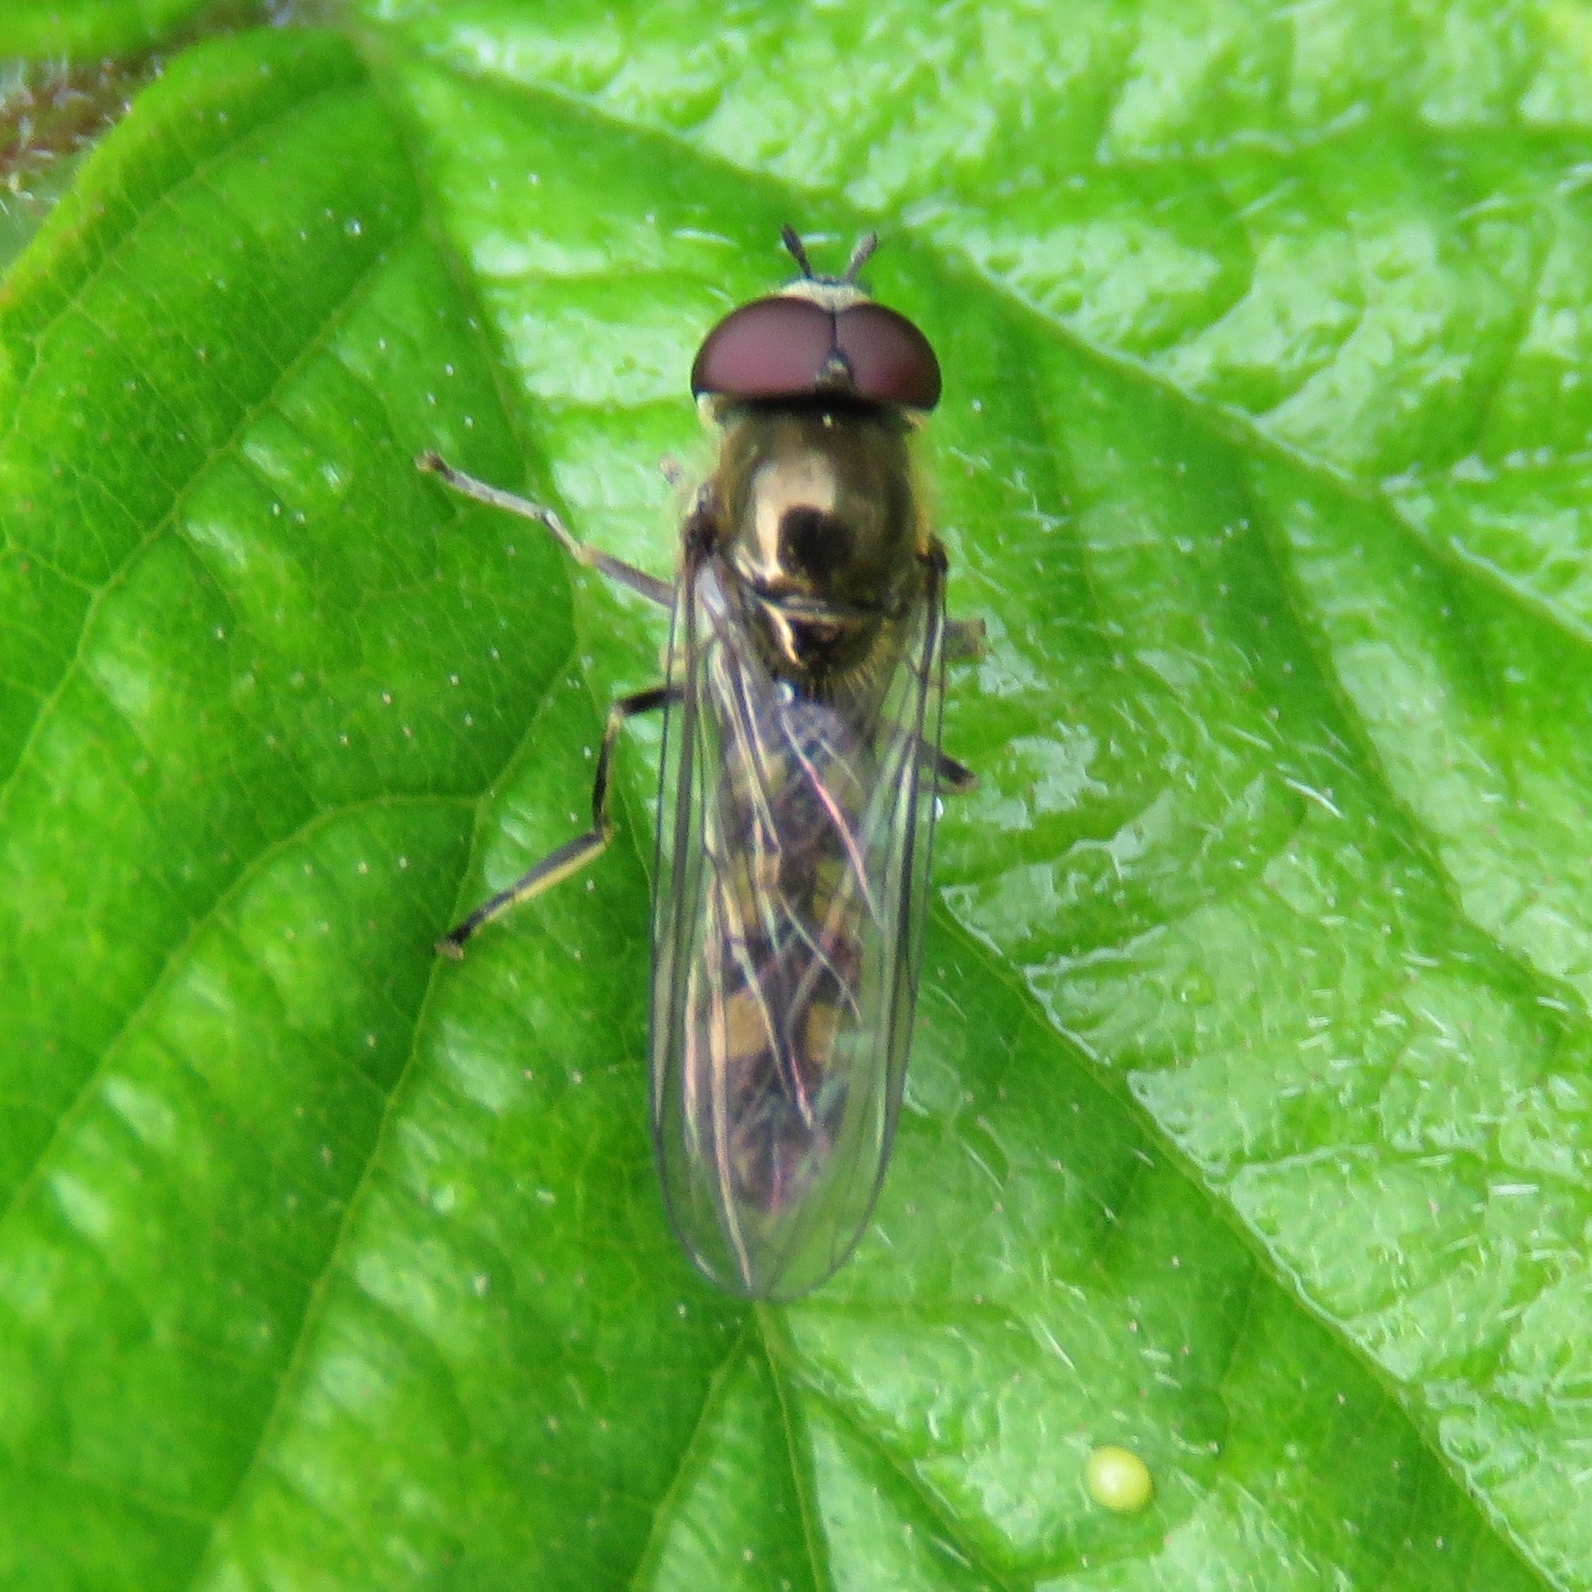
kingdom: Animalia
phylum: Arthropoda
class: Insecta
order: Diptera
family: Syrphidae
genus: Platycheirus
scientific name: Platycheirus scutatus
